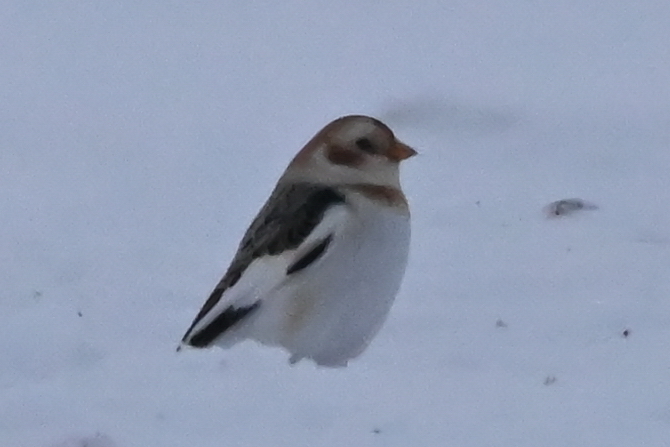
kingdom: Animalia
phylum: Chordata
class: Aves
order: Passeriformes
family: Calcariidae
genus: Plectrophenax
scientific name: Plectrophenax nivalis
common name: Snow bunting
